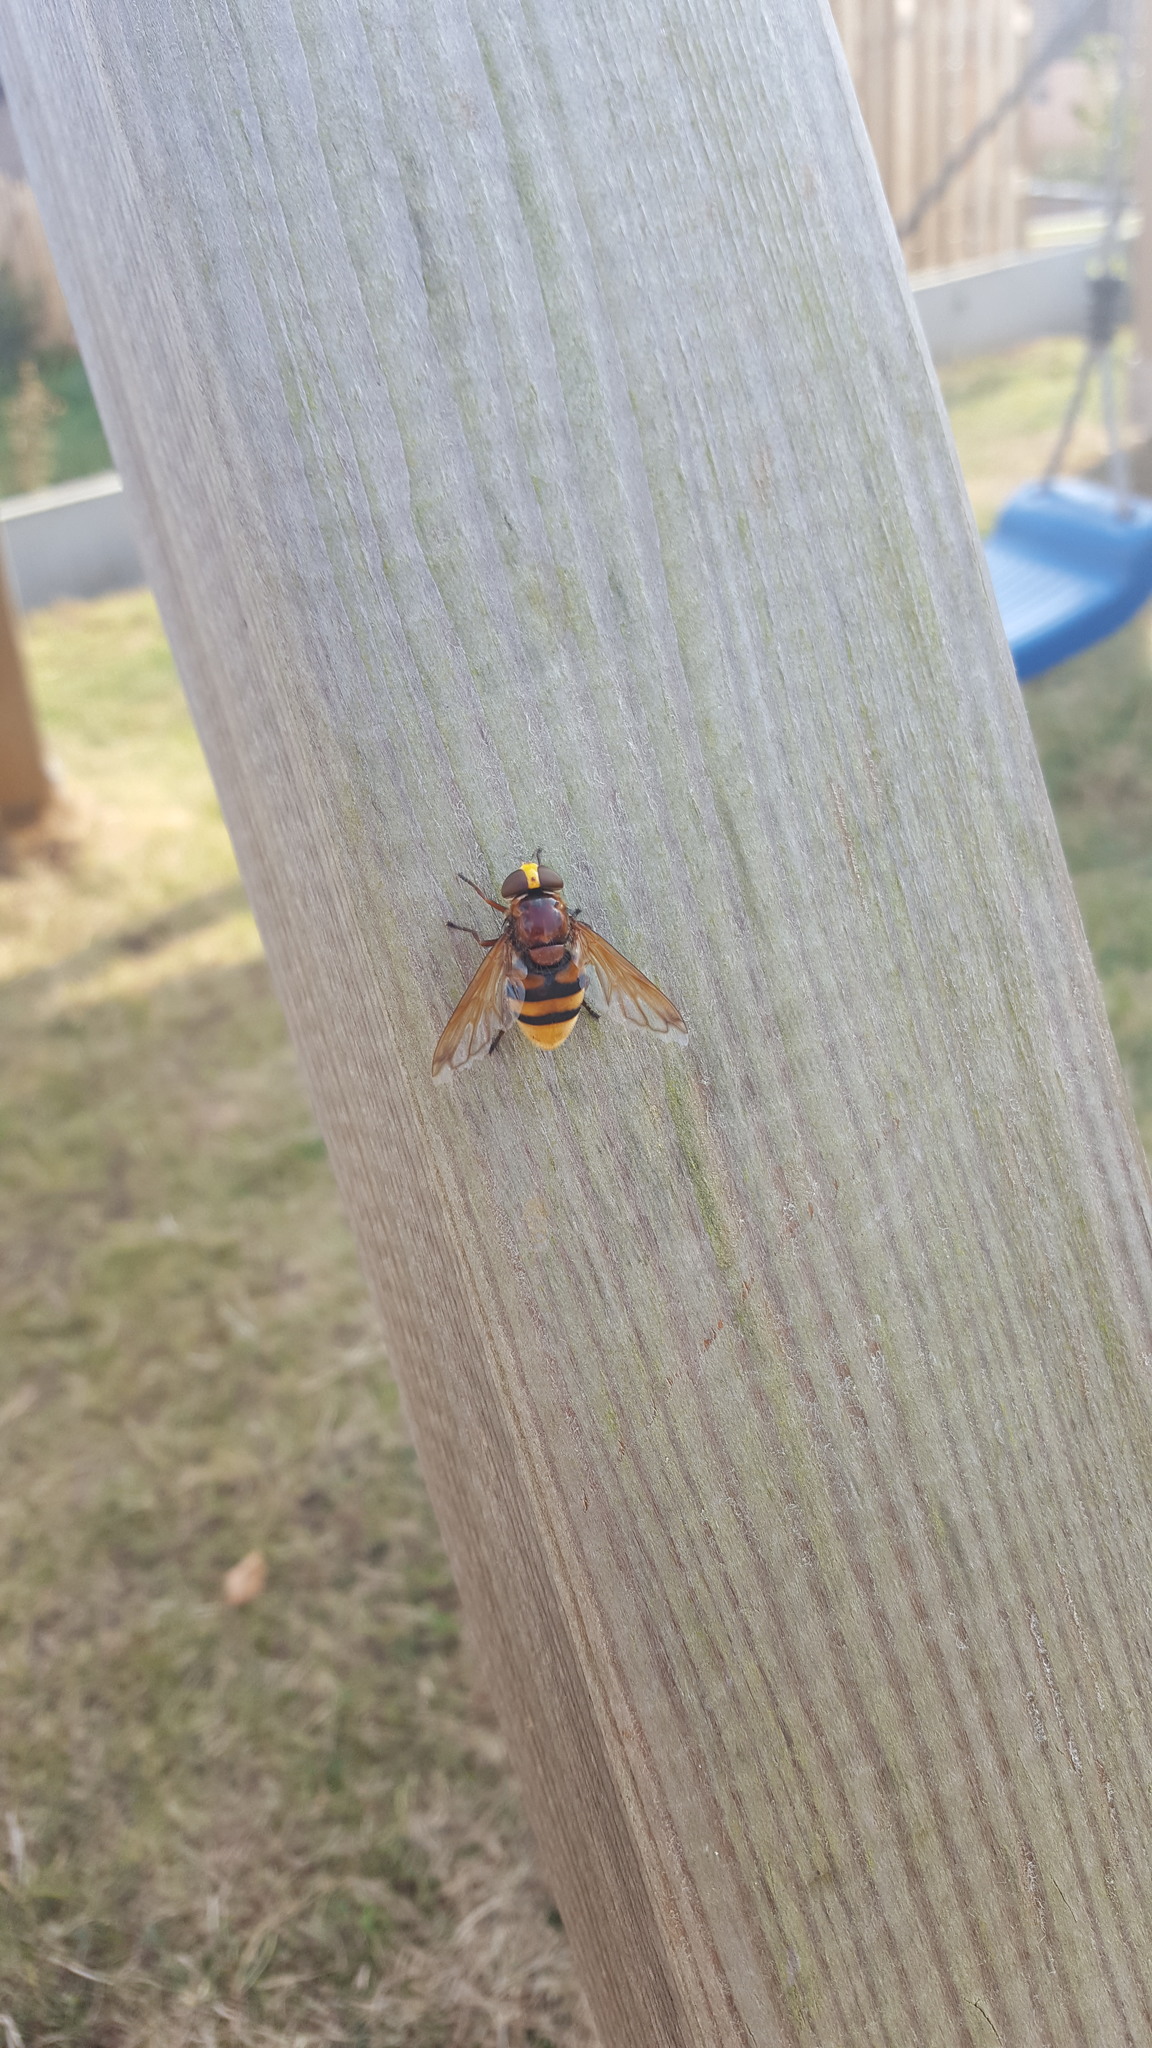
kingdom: Animalia
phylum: Arthropoda
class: Insecta
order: Diptera
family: Syrphidae
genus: Volucella
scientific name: Volucella zonaria
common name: Hornet hoverfly
